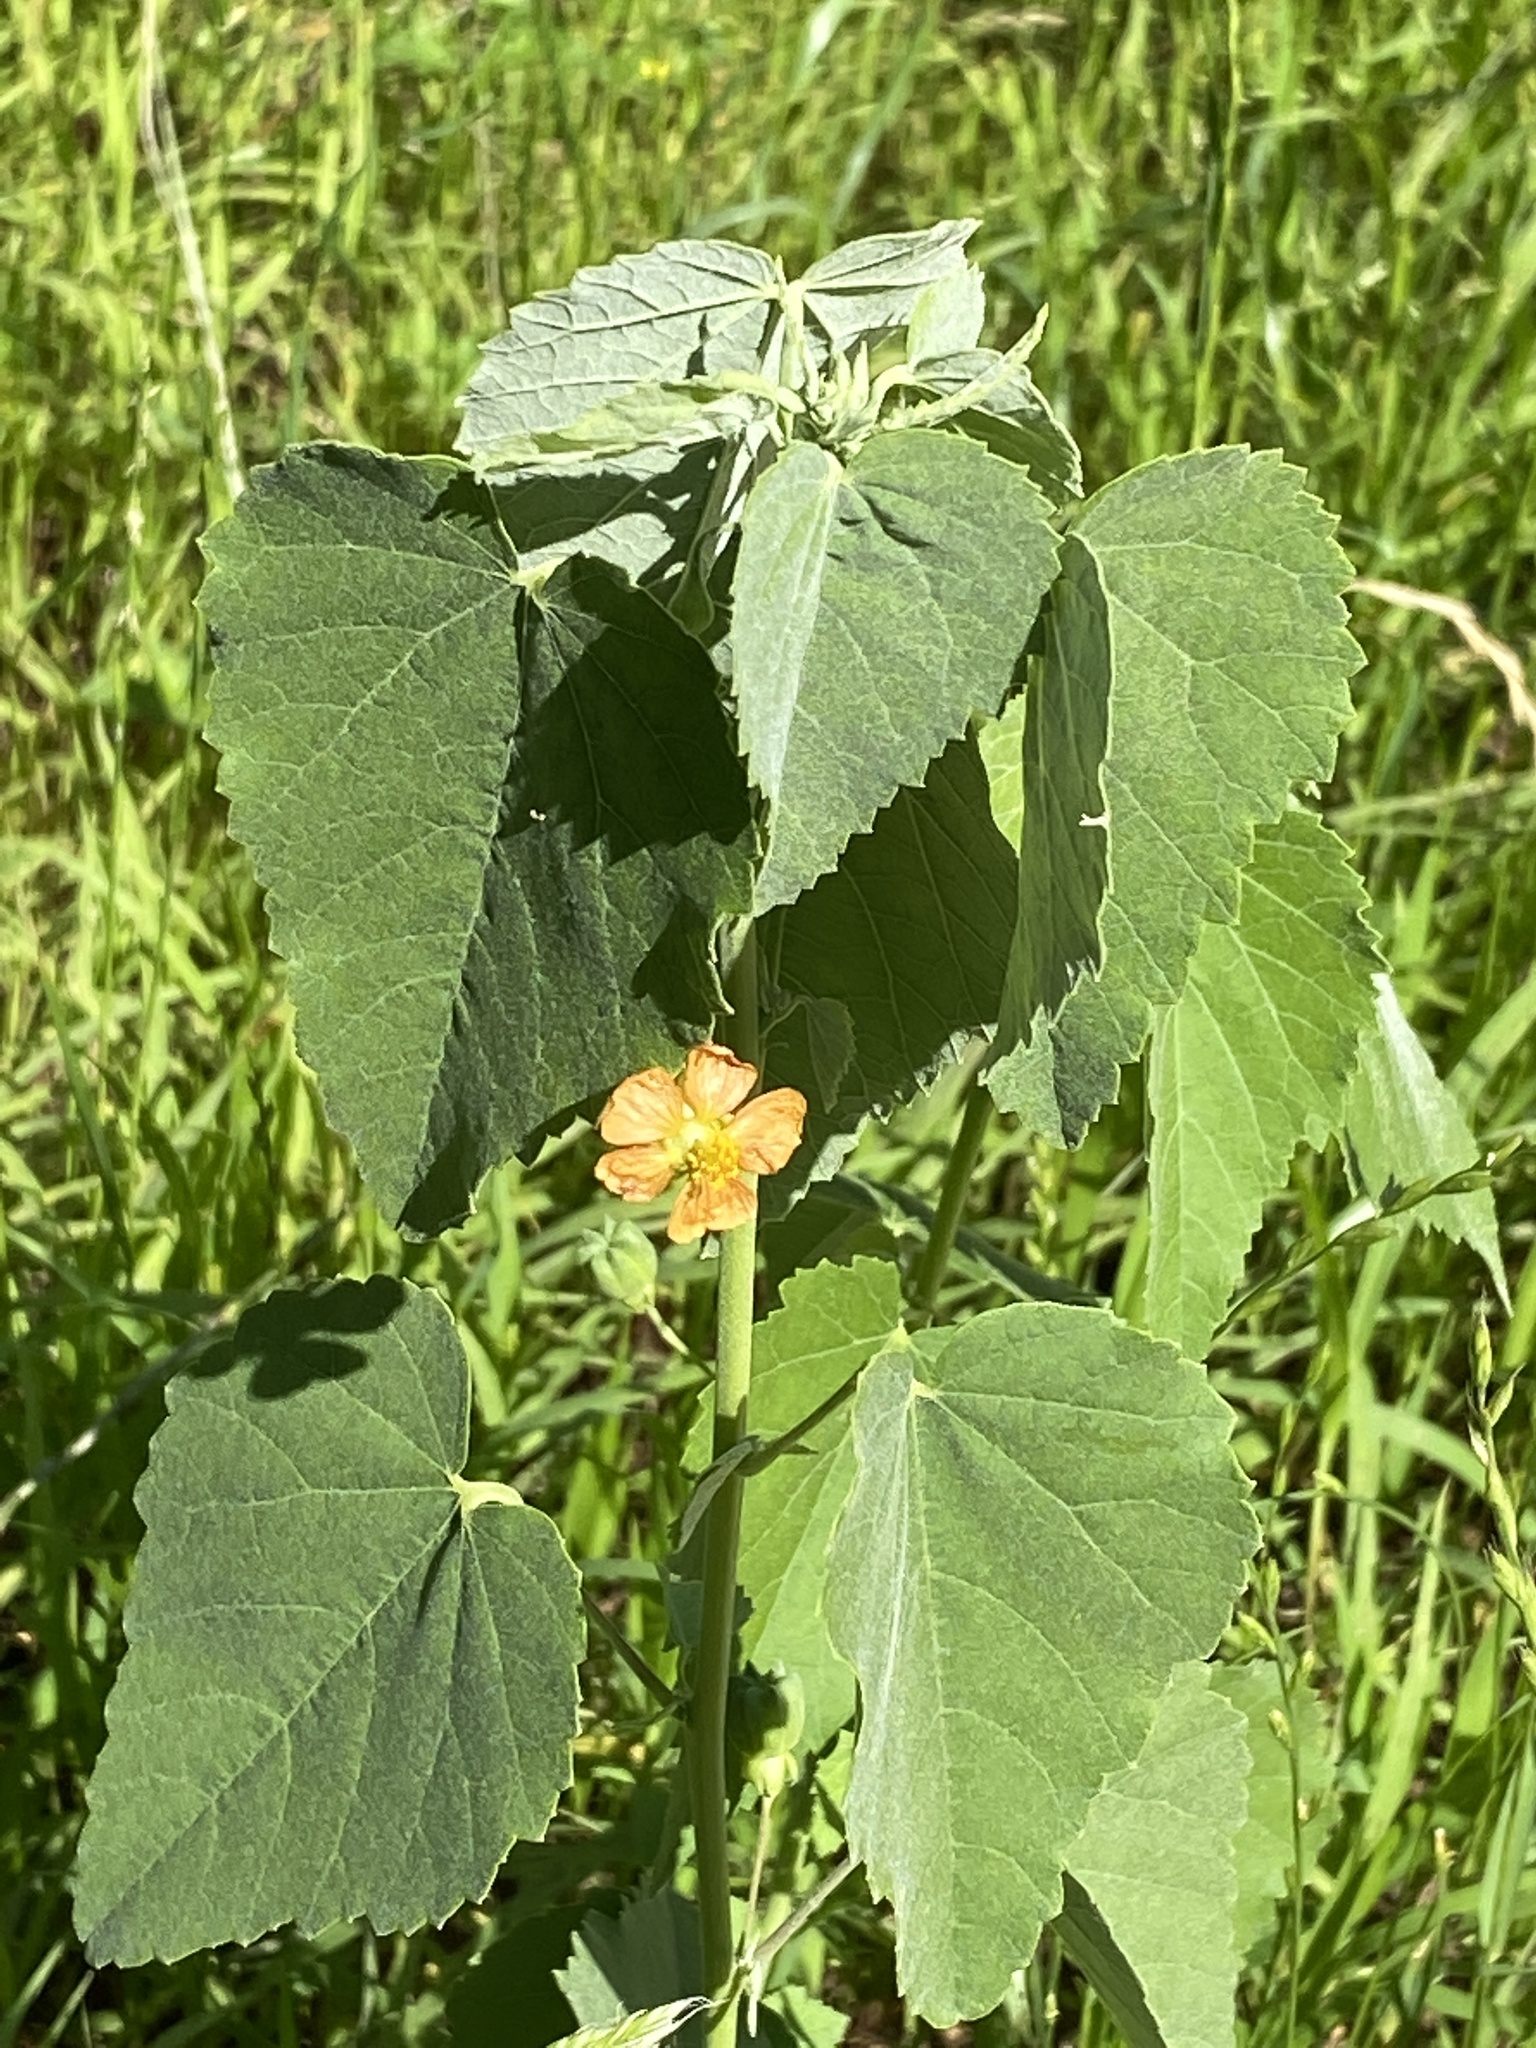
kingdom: Plantae
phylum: Tracheophyta
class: Magnoliopsida
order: Malvales
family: Malvaceae
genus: Abutilon
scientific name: Abutilon fruticosum
